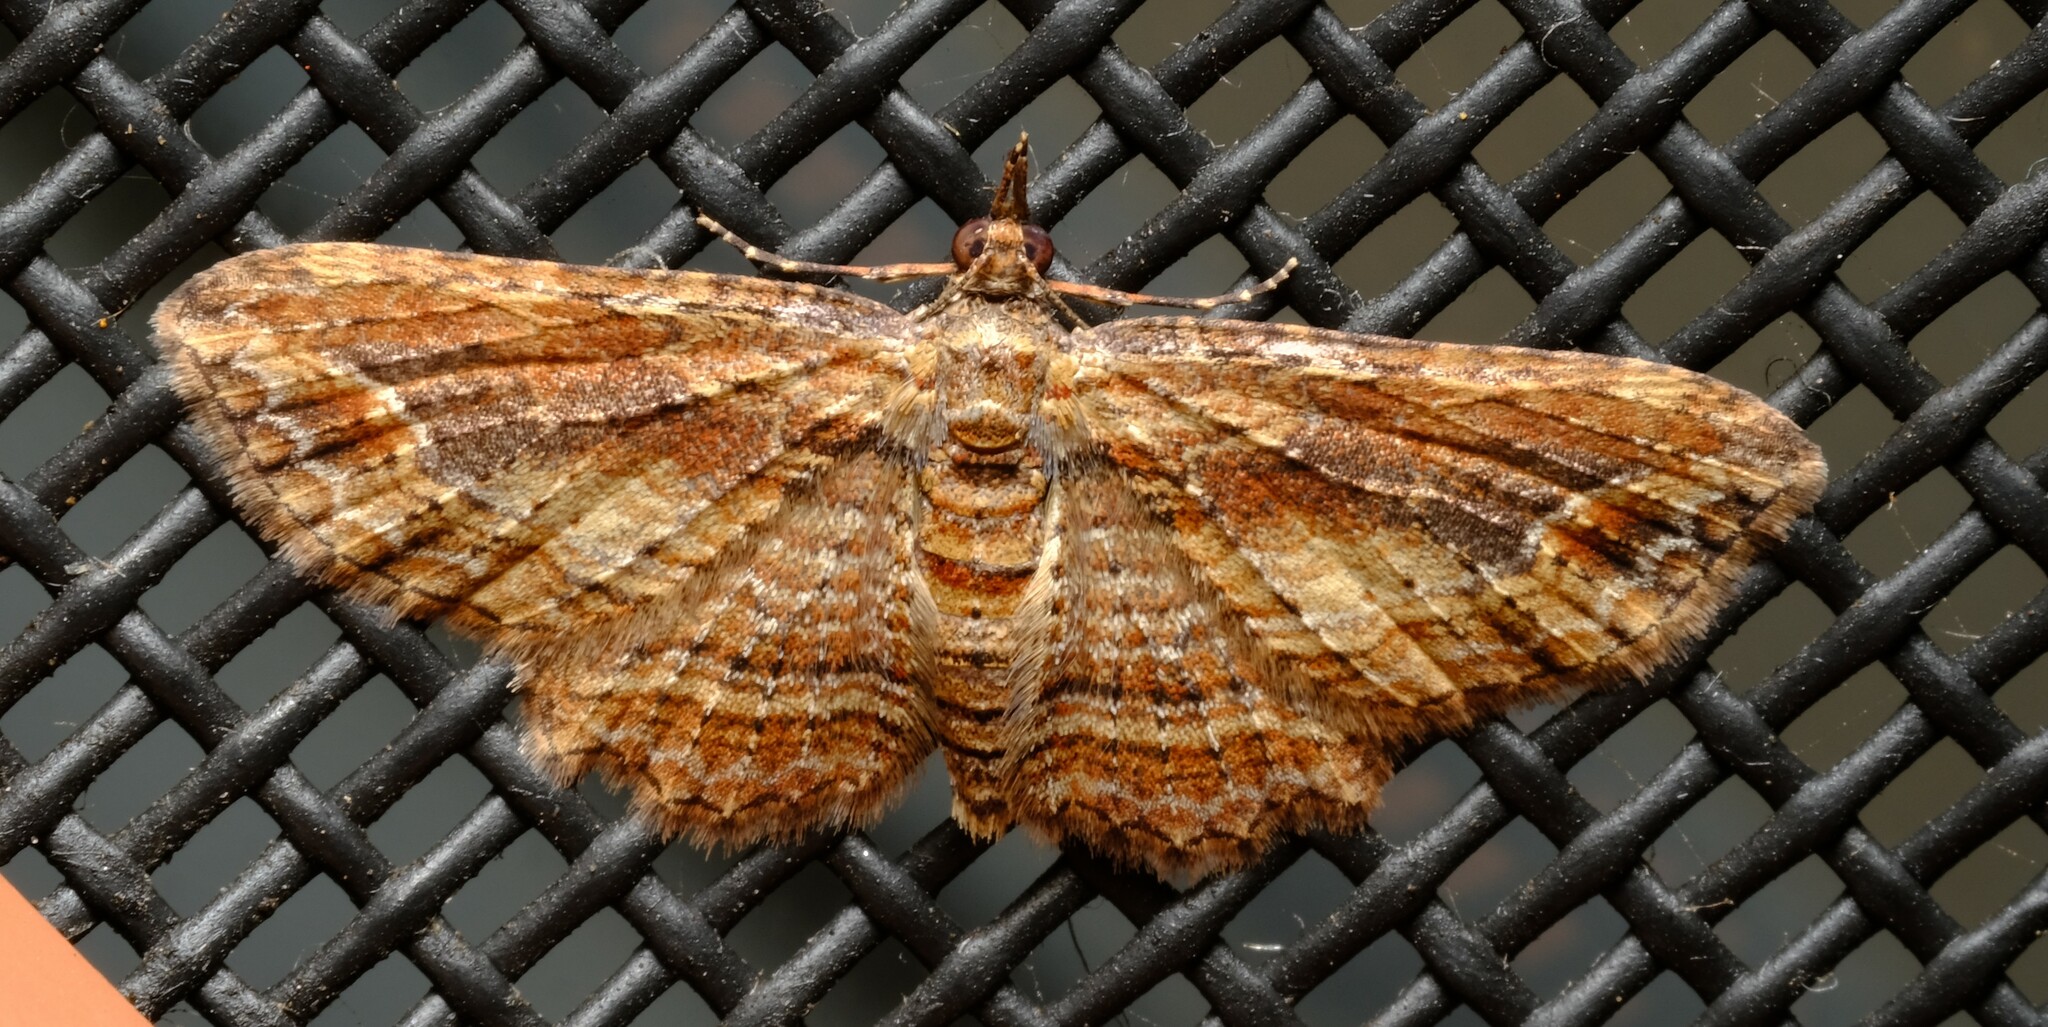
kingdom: Animalia
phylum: Arthropoda
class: Insecta
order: Lepidoptera
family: Geometridae
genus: Chloroclystis
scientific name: Chloroclystis filata
